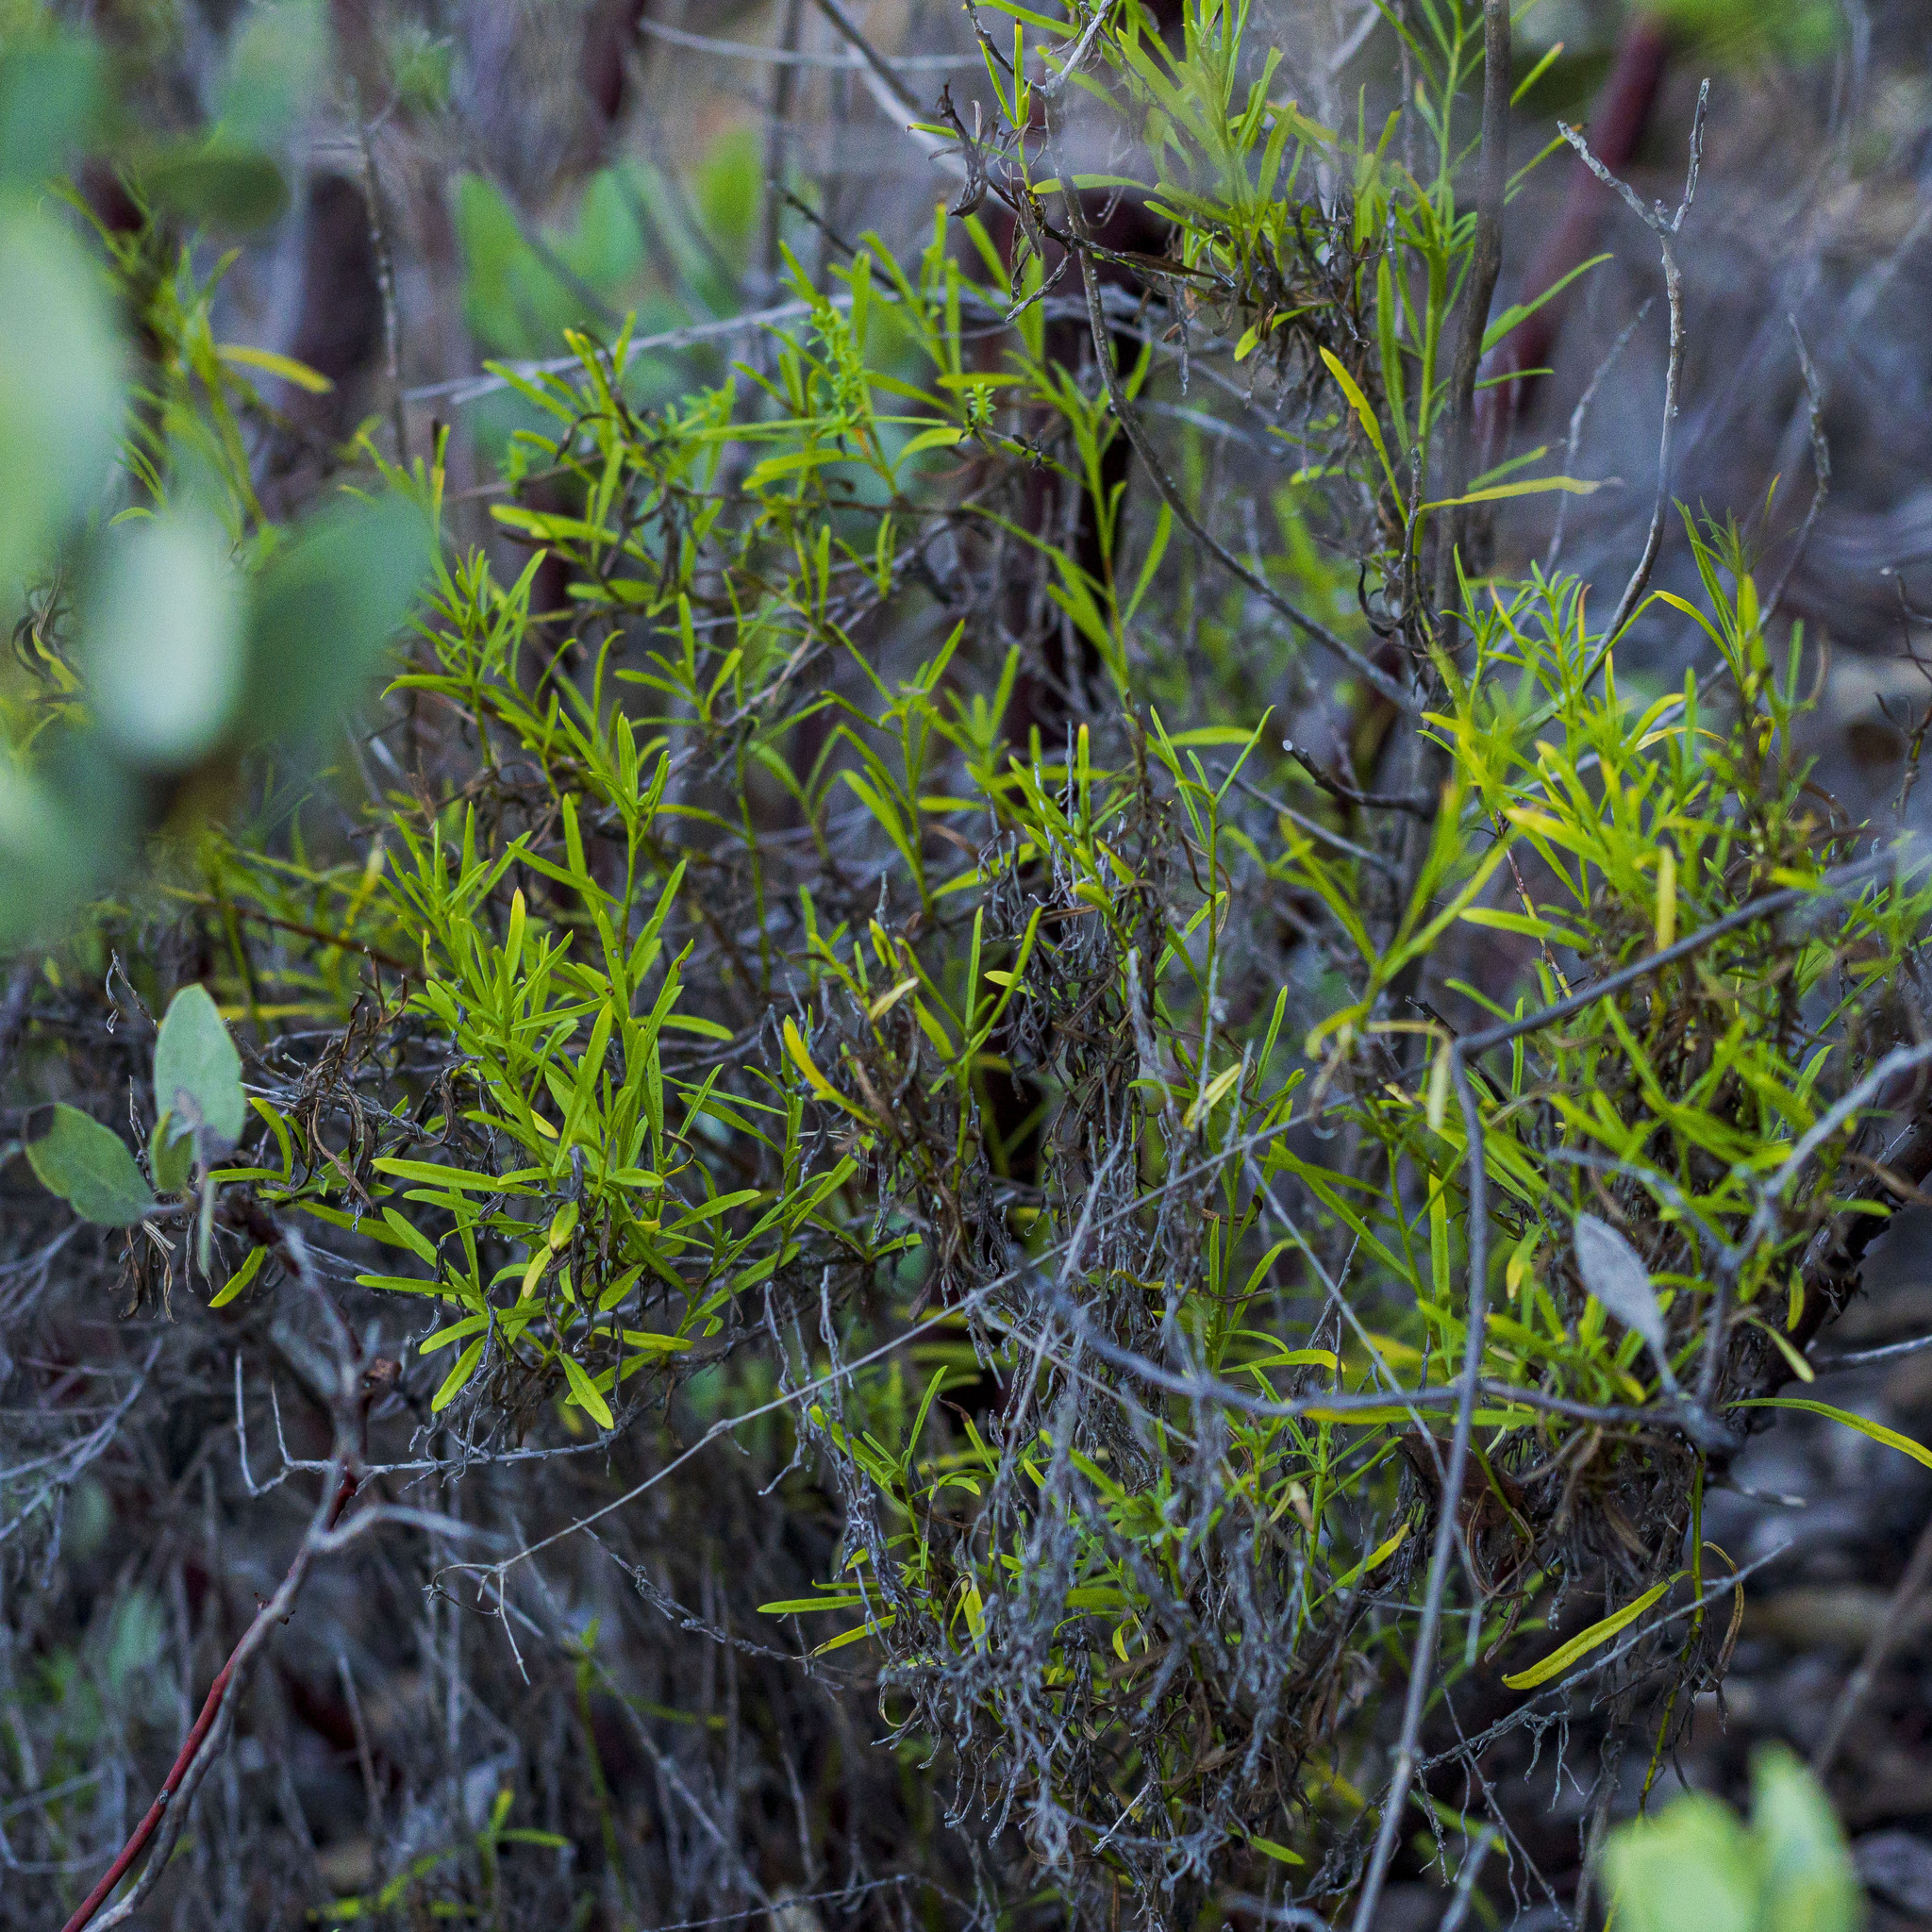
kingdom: Plantae
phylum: Tracheophyta
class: Magnoliopsida
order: Asterales
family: Asteraceae
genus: Baccharis
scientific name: Baccharis vanessae
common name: Encinitas baccharis
